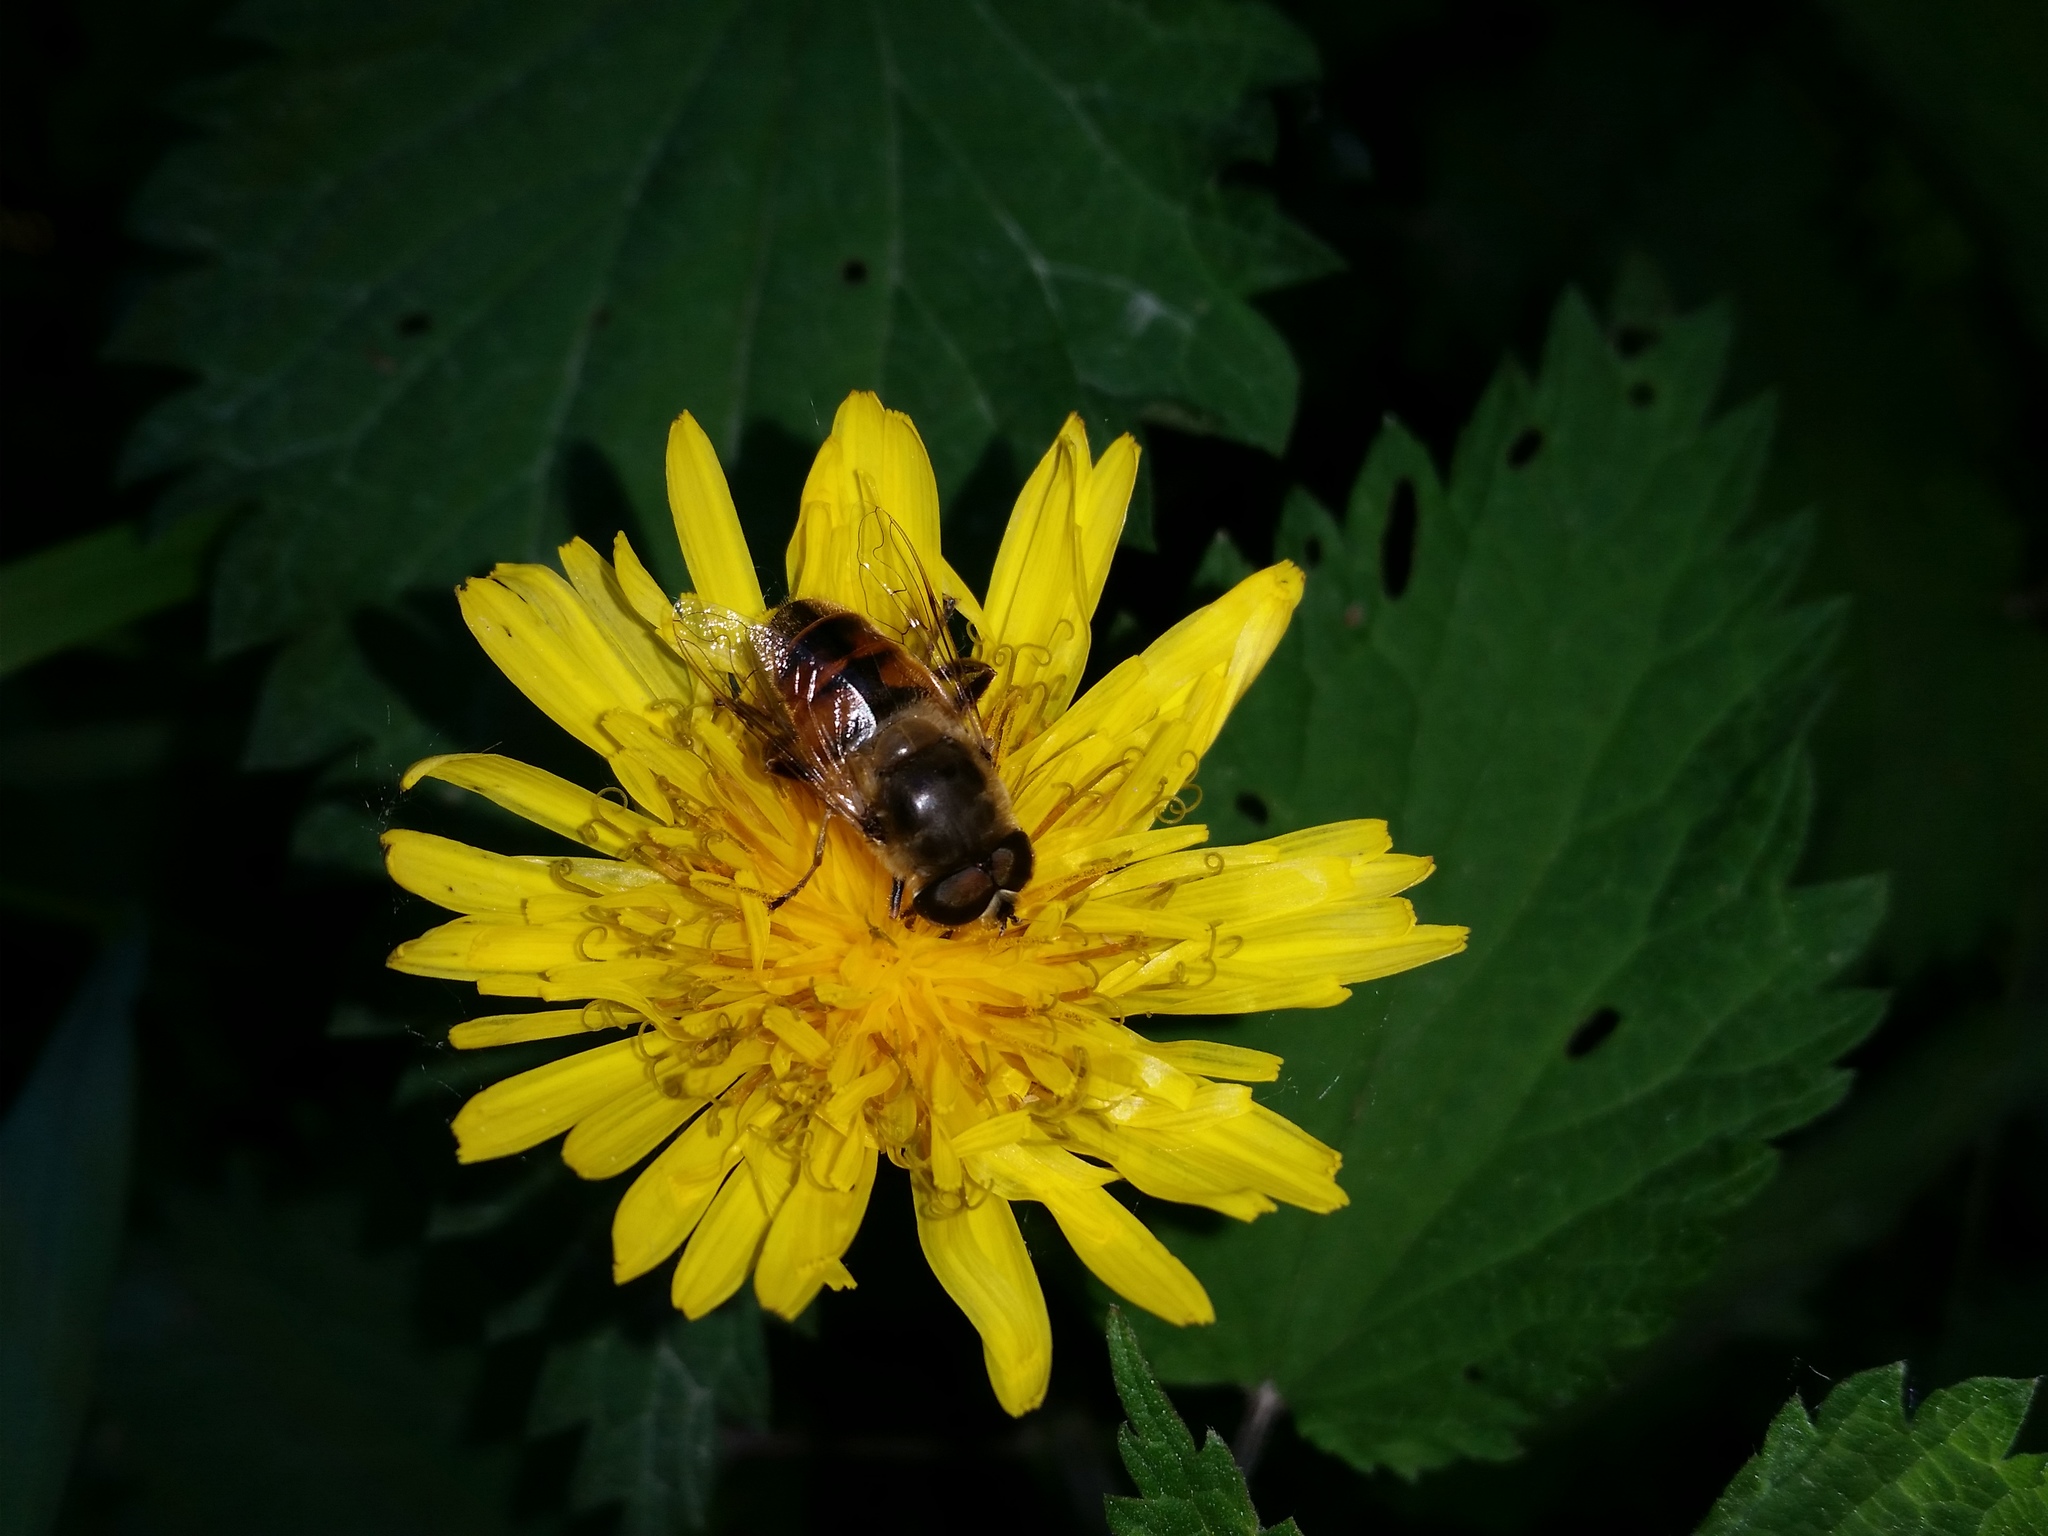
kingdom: Animalia
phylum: Arthropoda
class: Insecta
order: Diptera
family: Syrphidae
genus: Eristalis
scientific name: Eristalis tenax
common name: Drone fly
